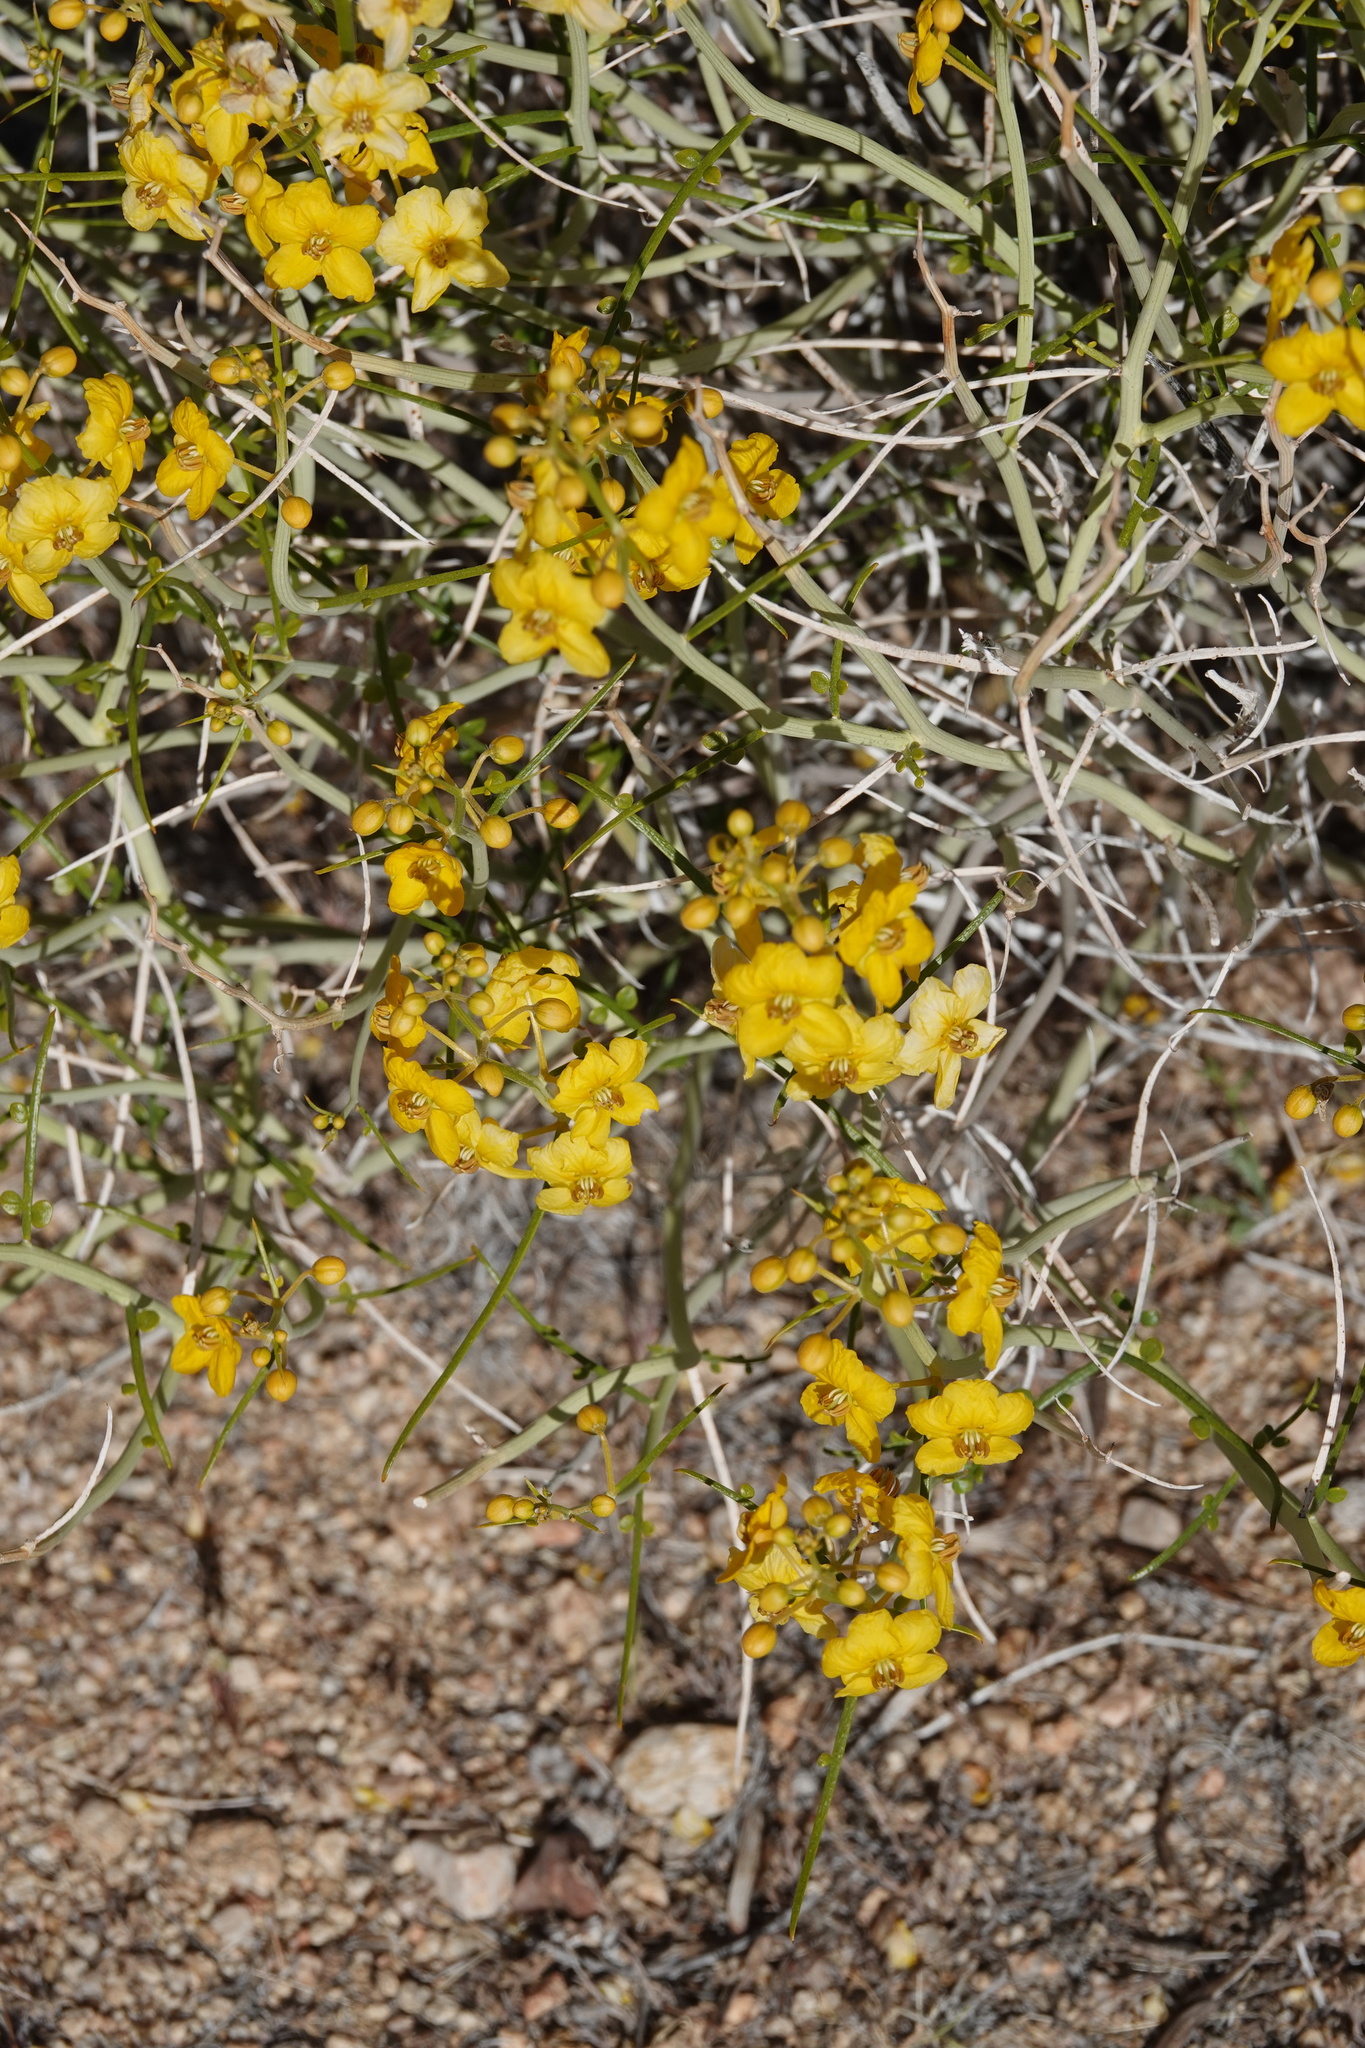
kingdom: Plantae
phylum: Tracheophyta
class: Magnoliopsida
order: Fabales
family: Fabaceae
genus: Senna
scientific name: Senna armata
